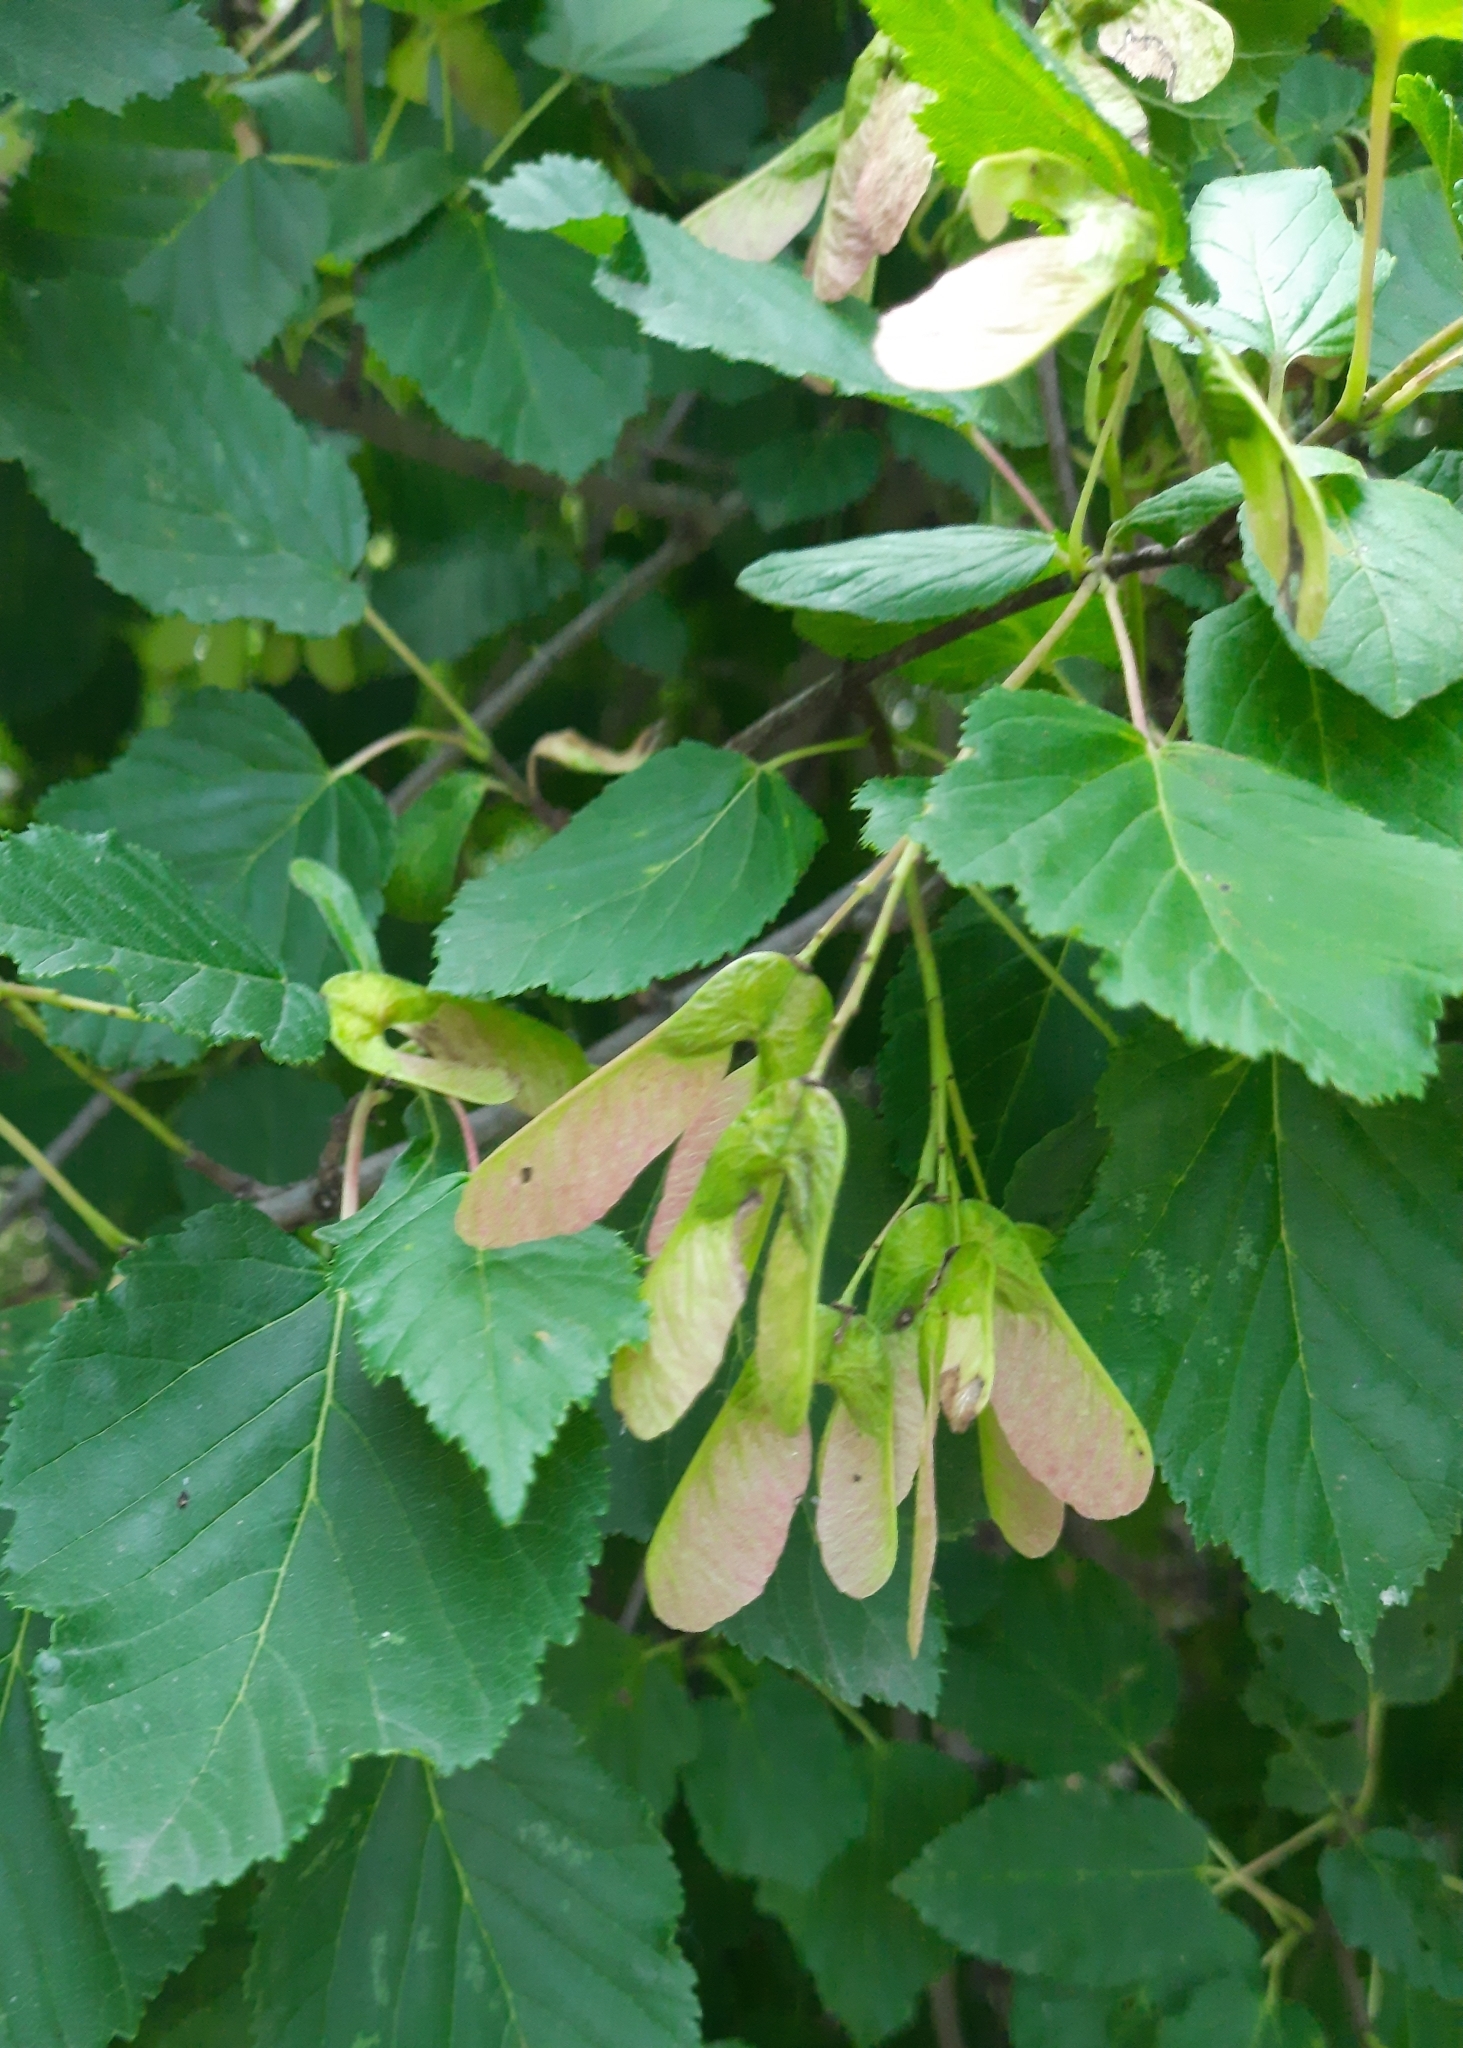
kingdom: Plantae
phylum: Tracheophyta
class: Magnoliopsida
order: Sapindales
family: Sapindaceae
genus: Acer
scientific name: Acer tataricum
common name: Tartar maple
